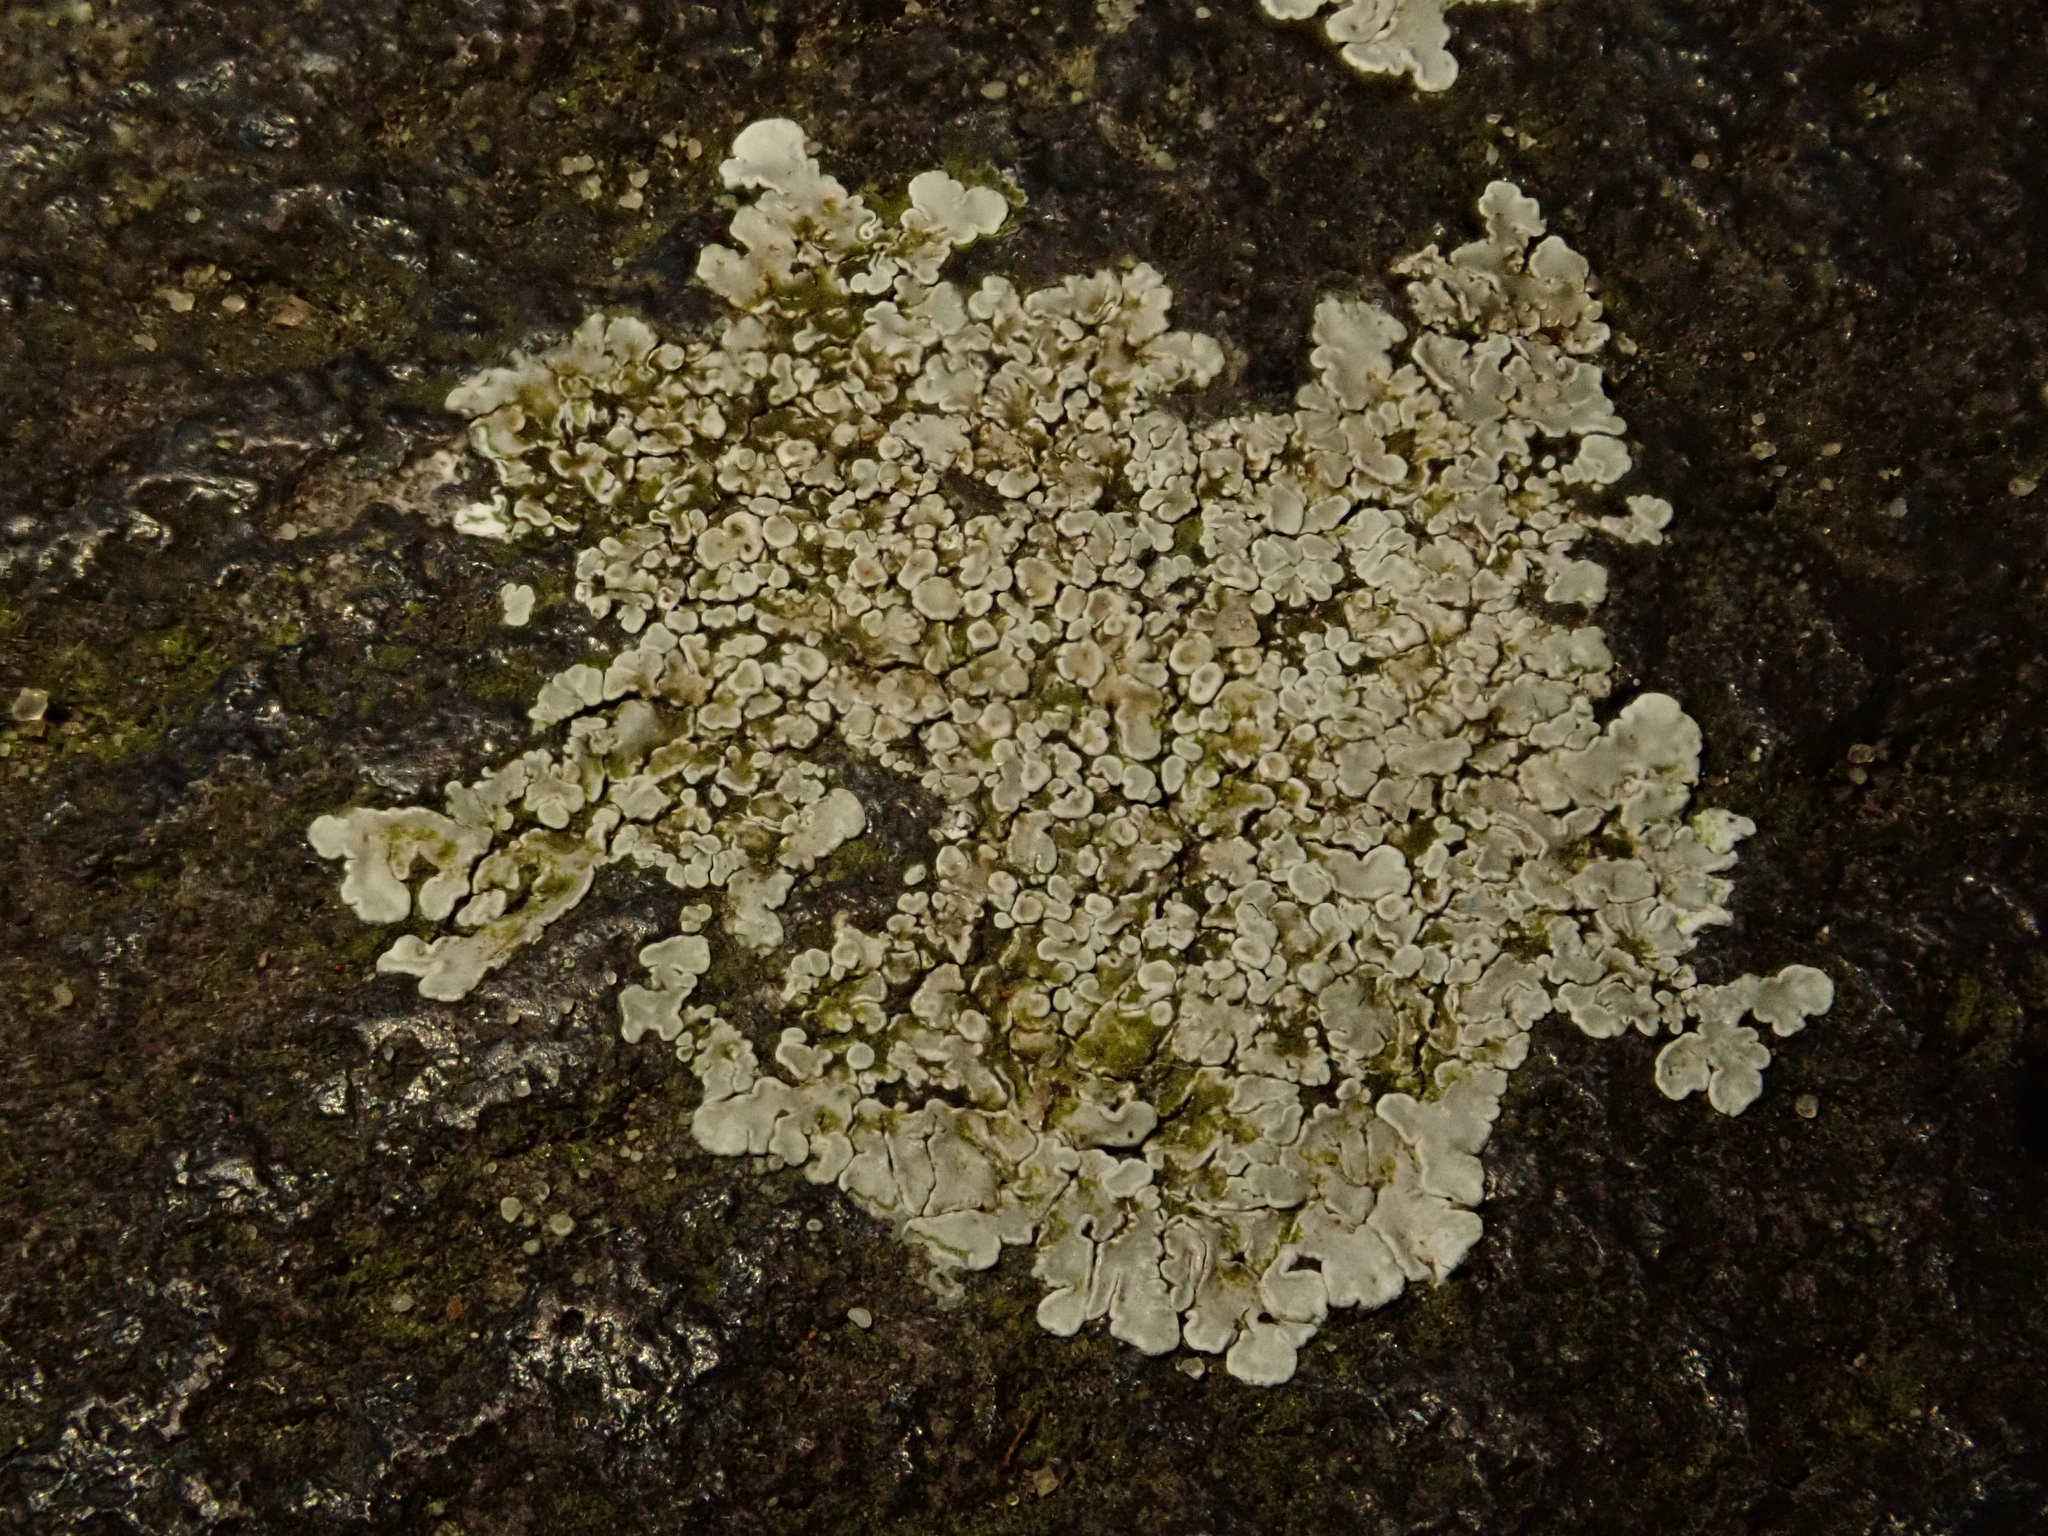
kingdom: Fungi
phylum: Ascomycota
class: Lecanoromycetes
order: Lecanorales
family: Lecanoraceae
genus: Protoparmeliopsis
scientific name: Protoparmeliopsis muralis
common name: Stonewall rim lichen
